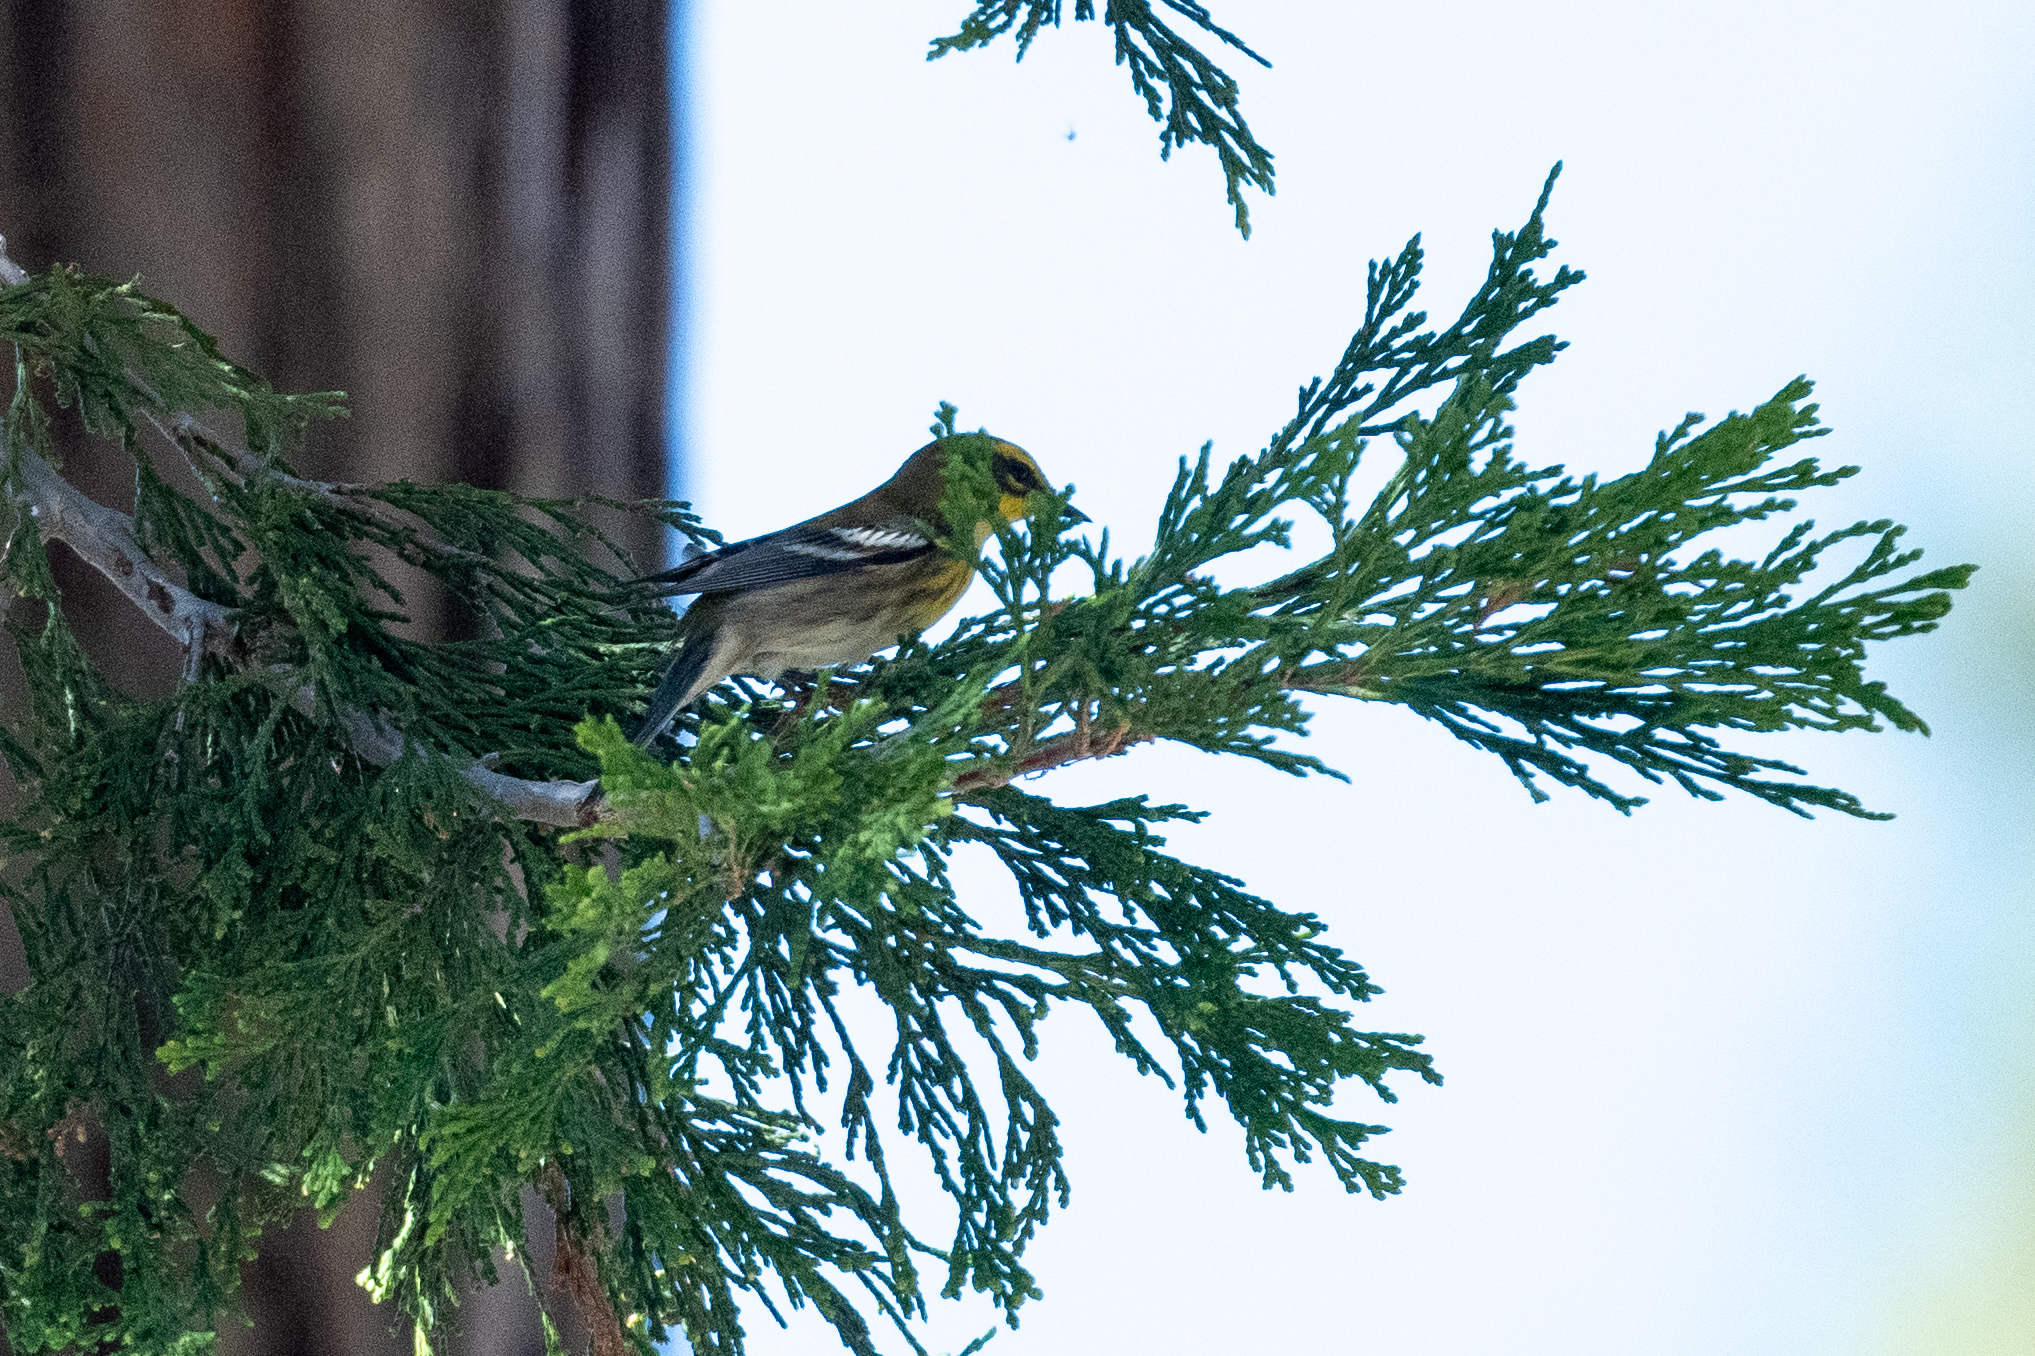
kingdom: Animalia
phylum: Chordata
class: Aves
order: Passeriformes
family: Parulidae
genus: Setophaga
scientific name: Setophaga townsendi
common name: Townsend's warbler
